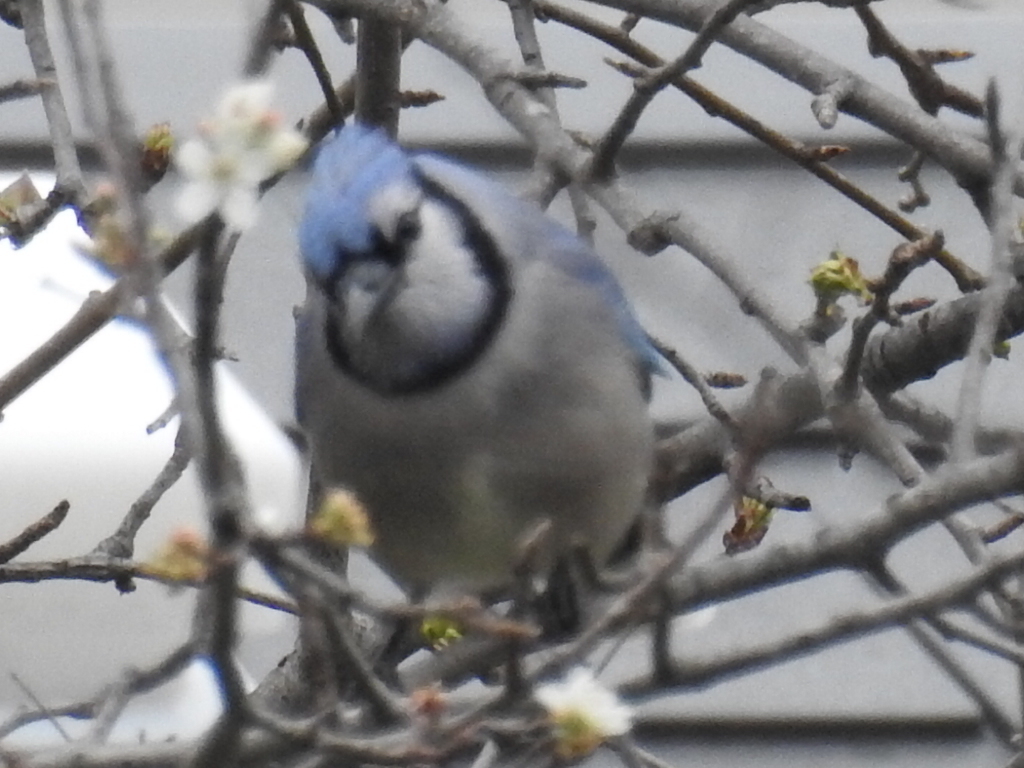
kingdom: Animalia
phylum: Chordata
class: Aves
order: Passeriformes
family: Corvidae
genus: Cyanocitta
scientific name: Cyanocitta cristata
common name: Blue jay
